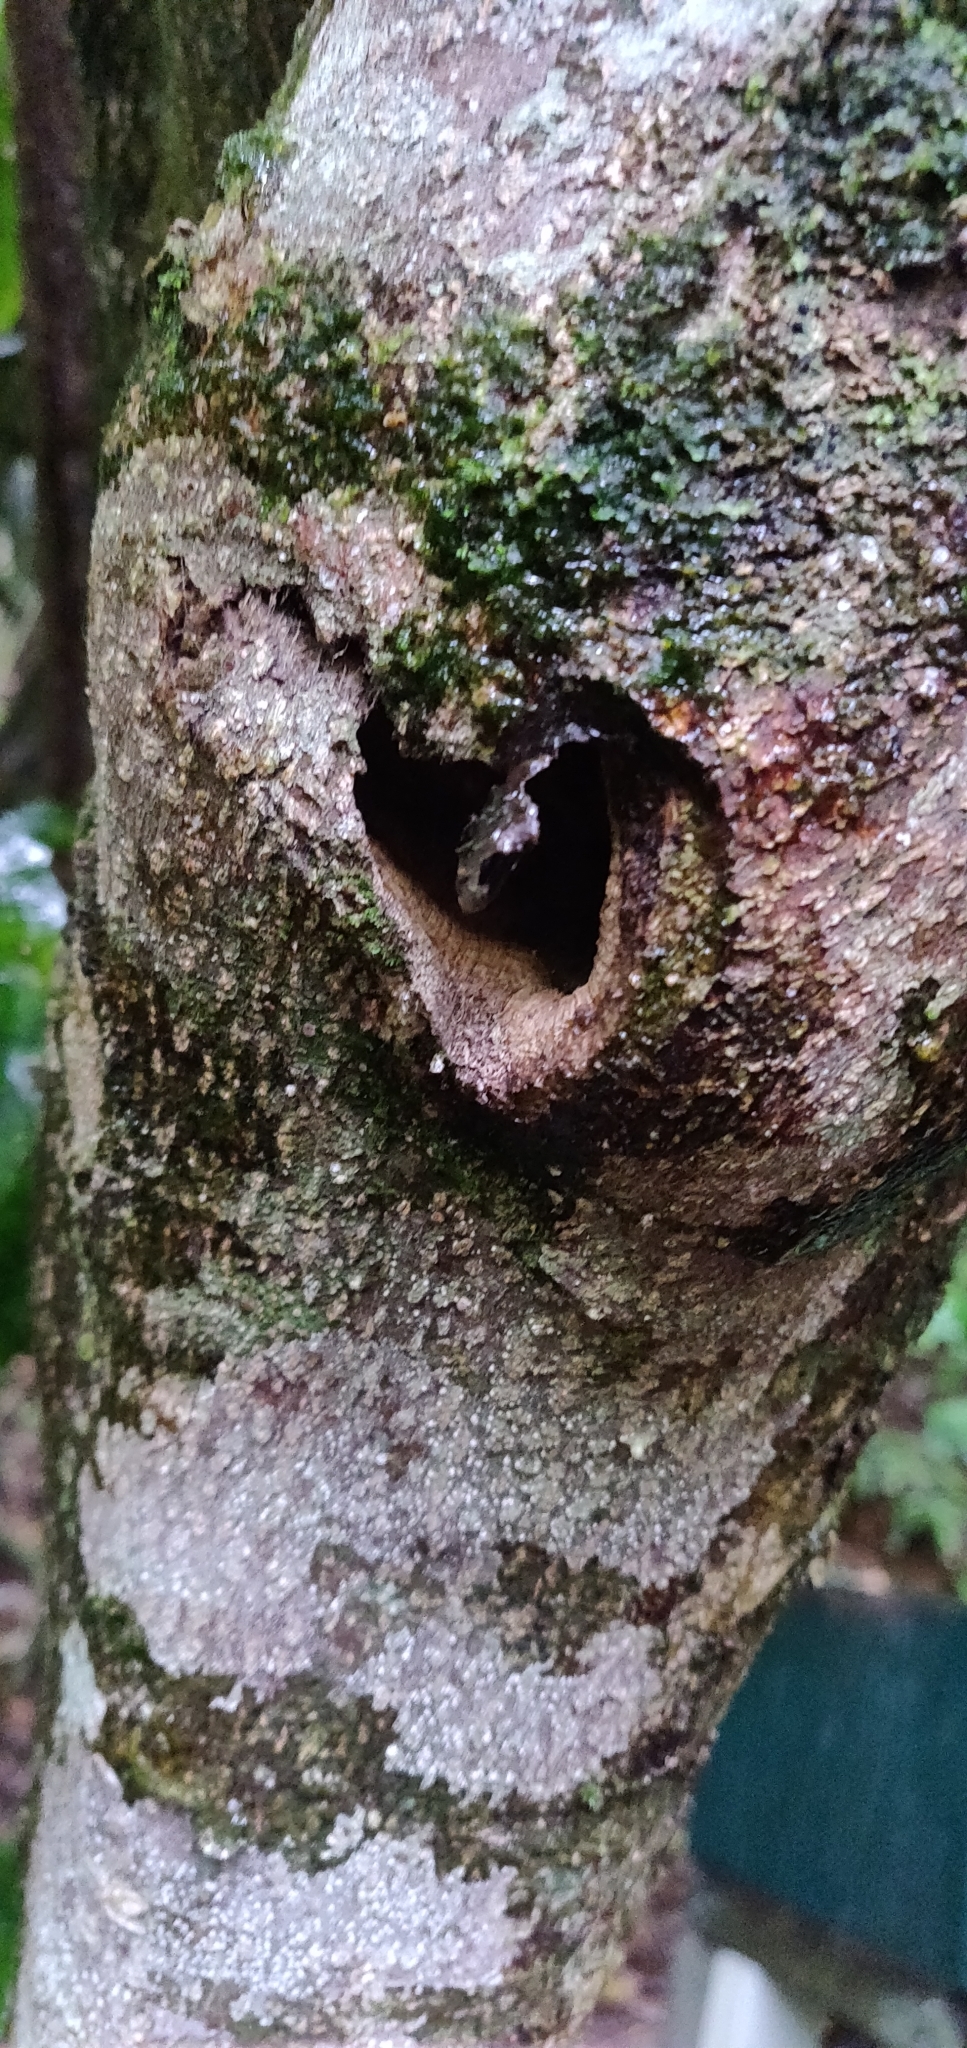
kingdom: Animalia
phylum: Arthropoda
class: Insecta
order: Lepidoptera
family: Hepialidae
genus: Aenetus
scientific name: Aenetus virescens
